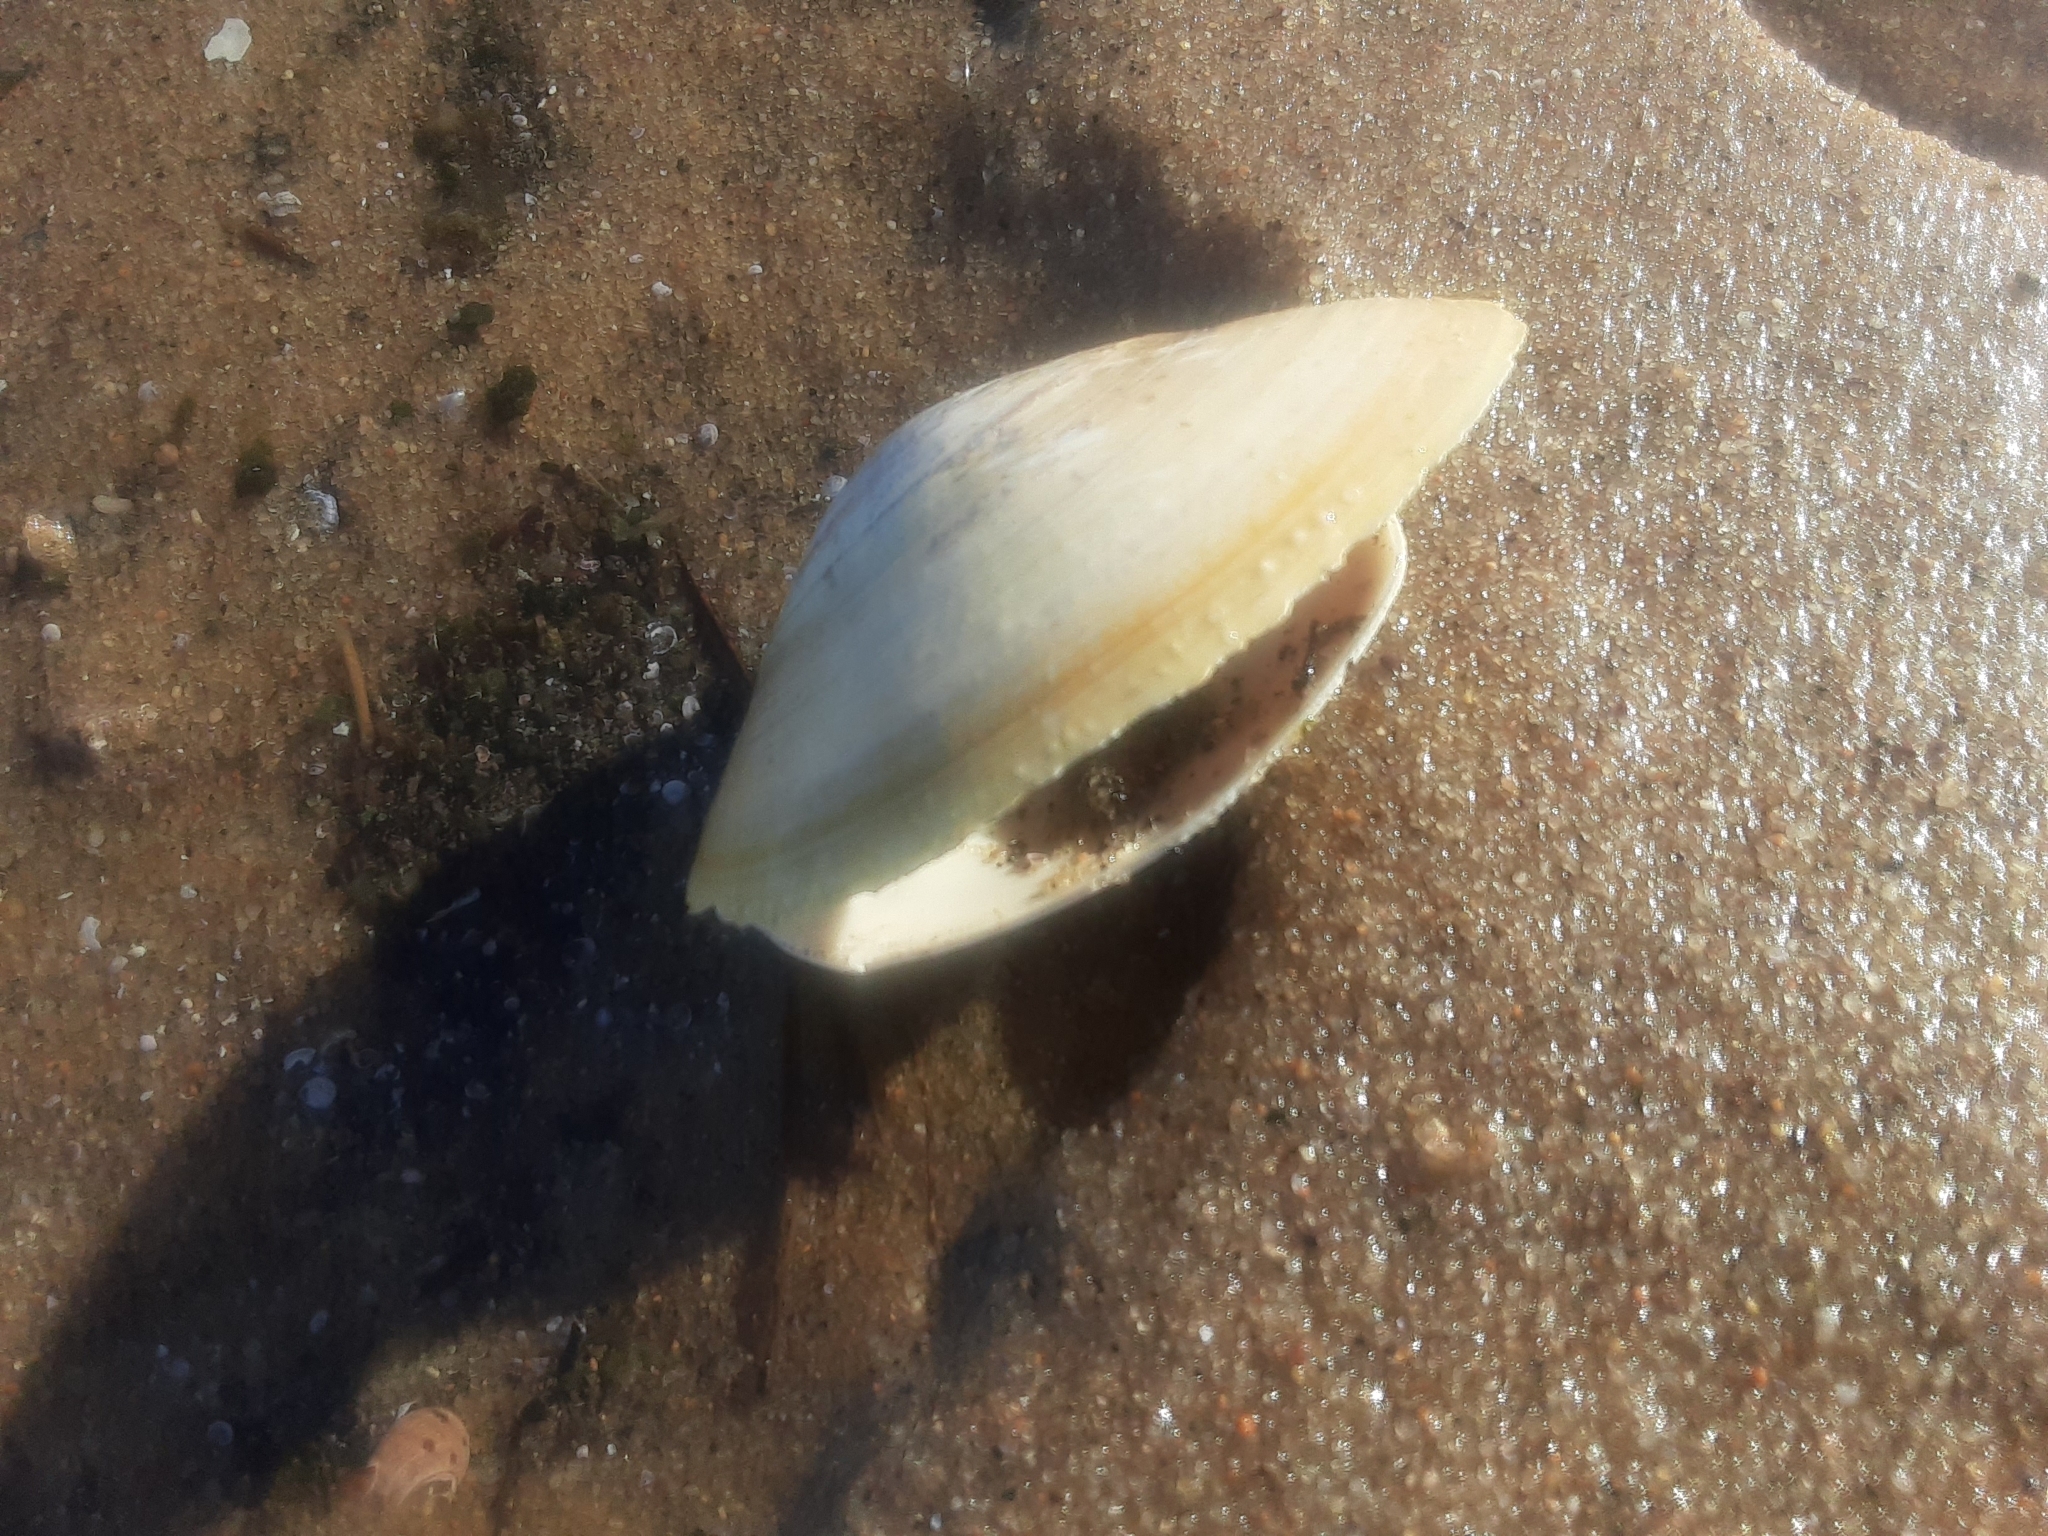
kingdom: Animalia
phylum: Mollusca
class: Bivalvia
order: Venerida
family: Mactridae
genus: Spisula
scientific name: Spisula solidissima
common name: Atlantic surf clam
